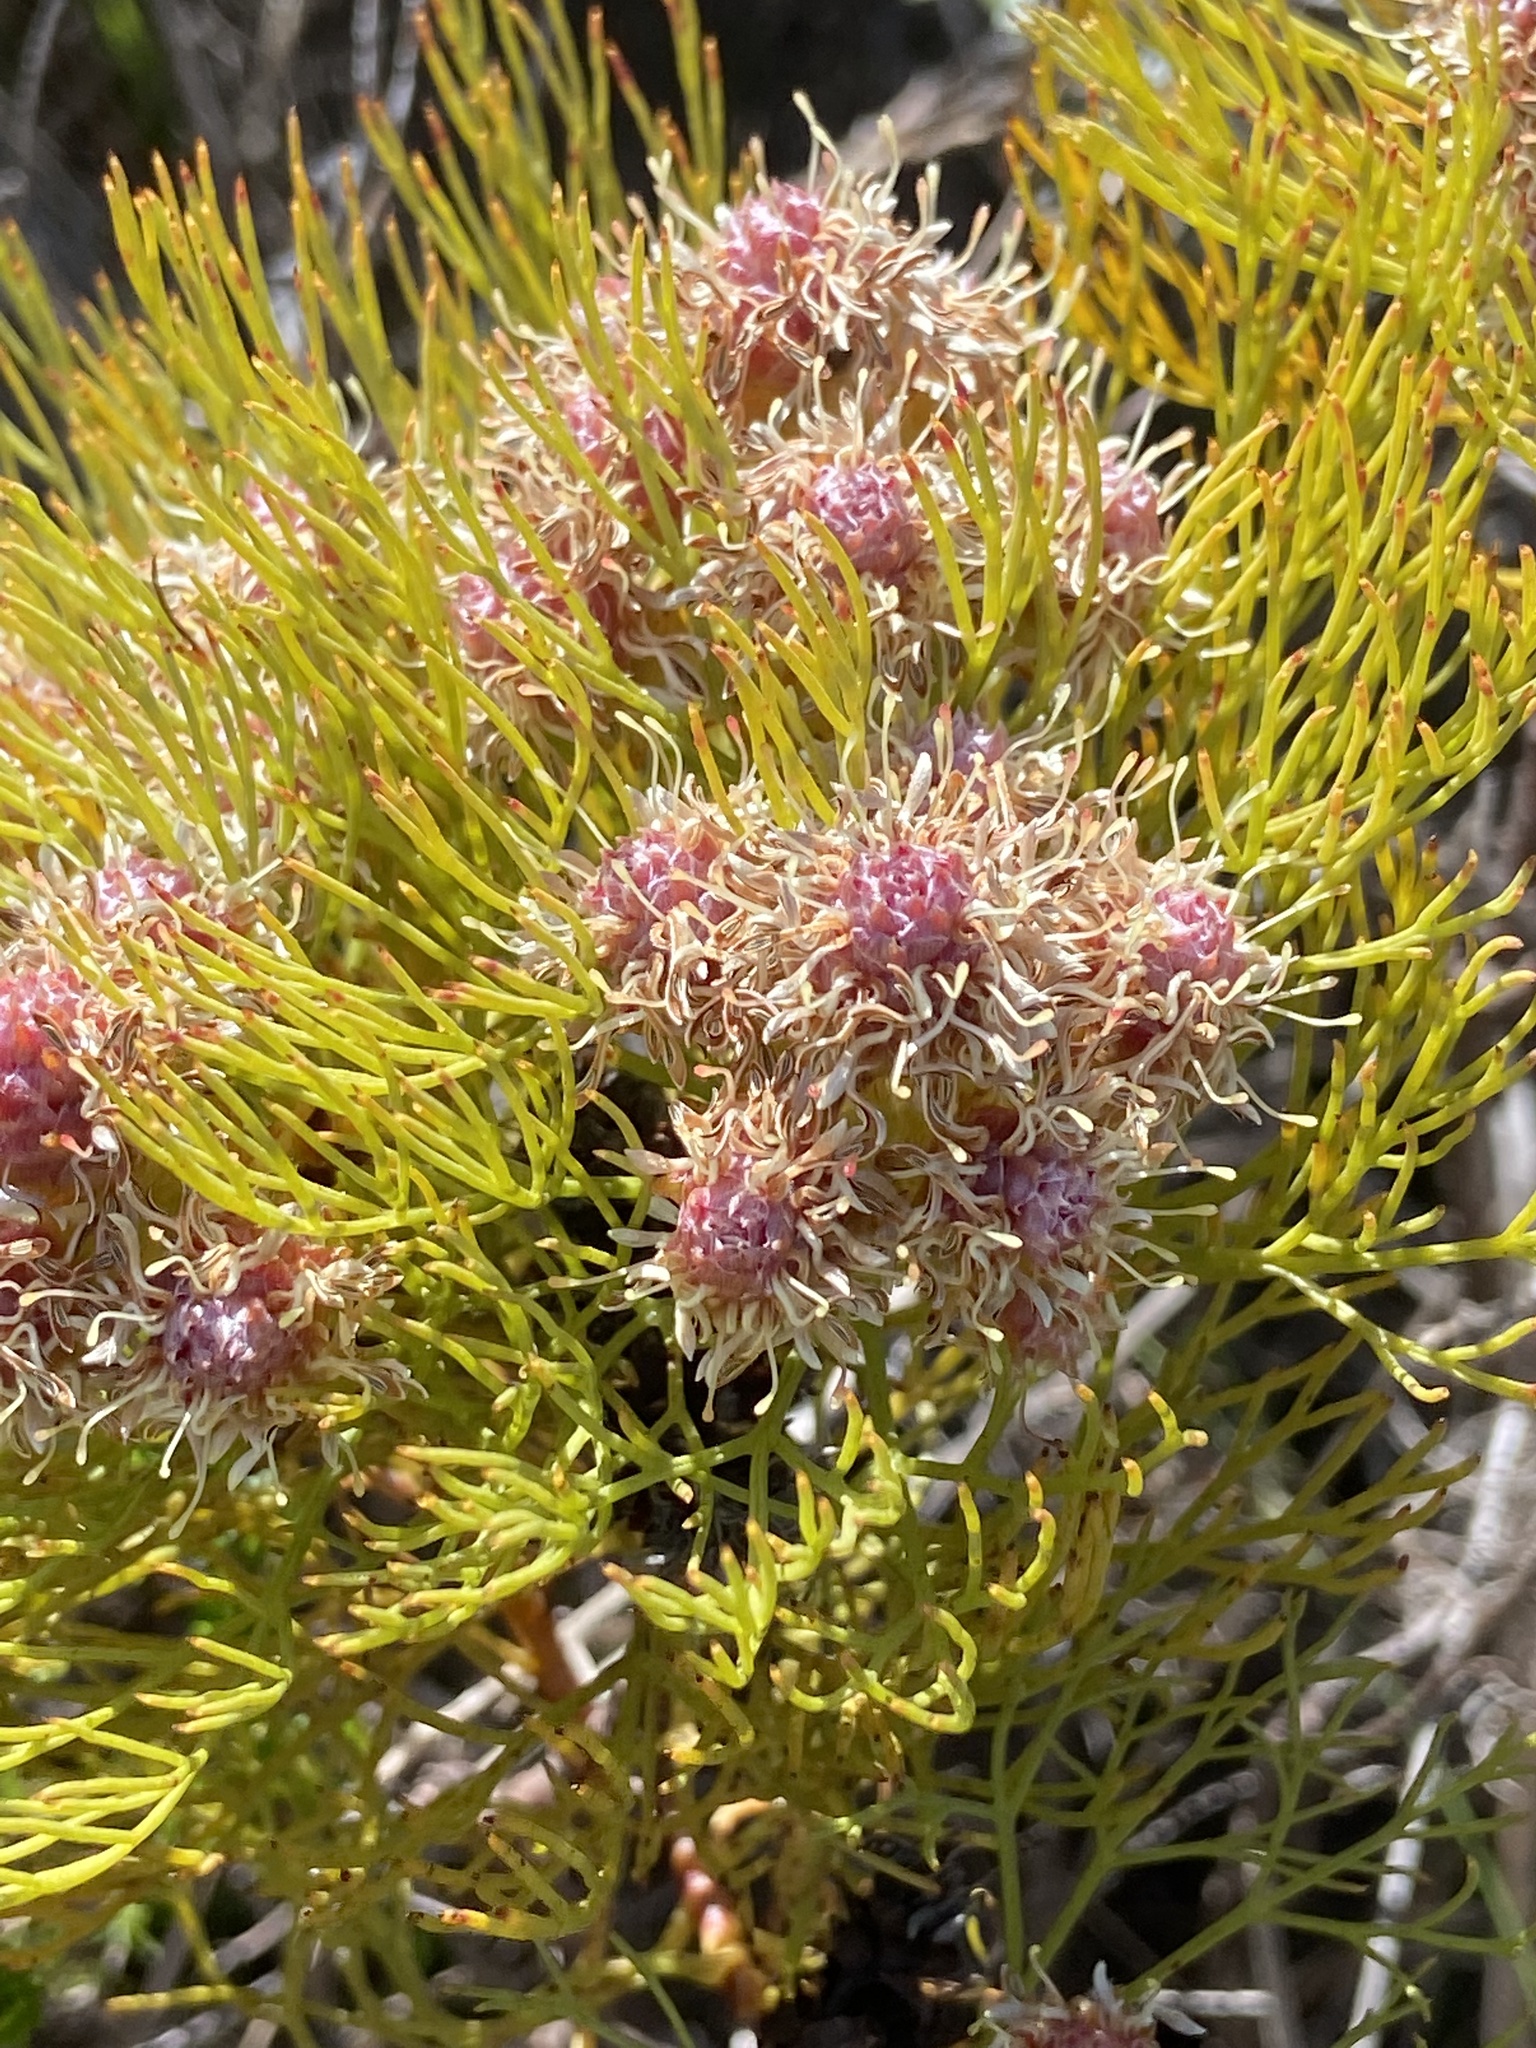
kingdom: Plantae
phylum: Tracheophyta
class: Magnoliopsida
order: Proteales
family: Proteaceae
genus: Serruria
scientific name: Serruria glomerata
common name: Cluster spiderhead
